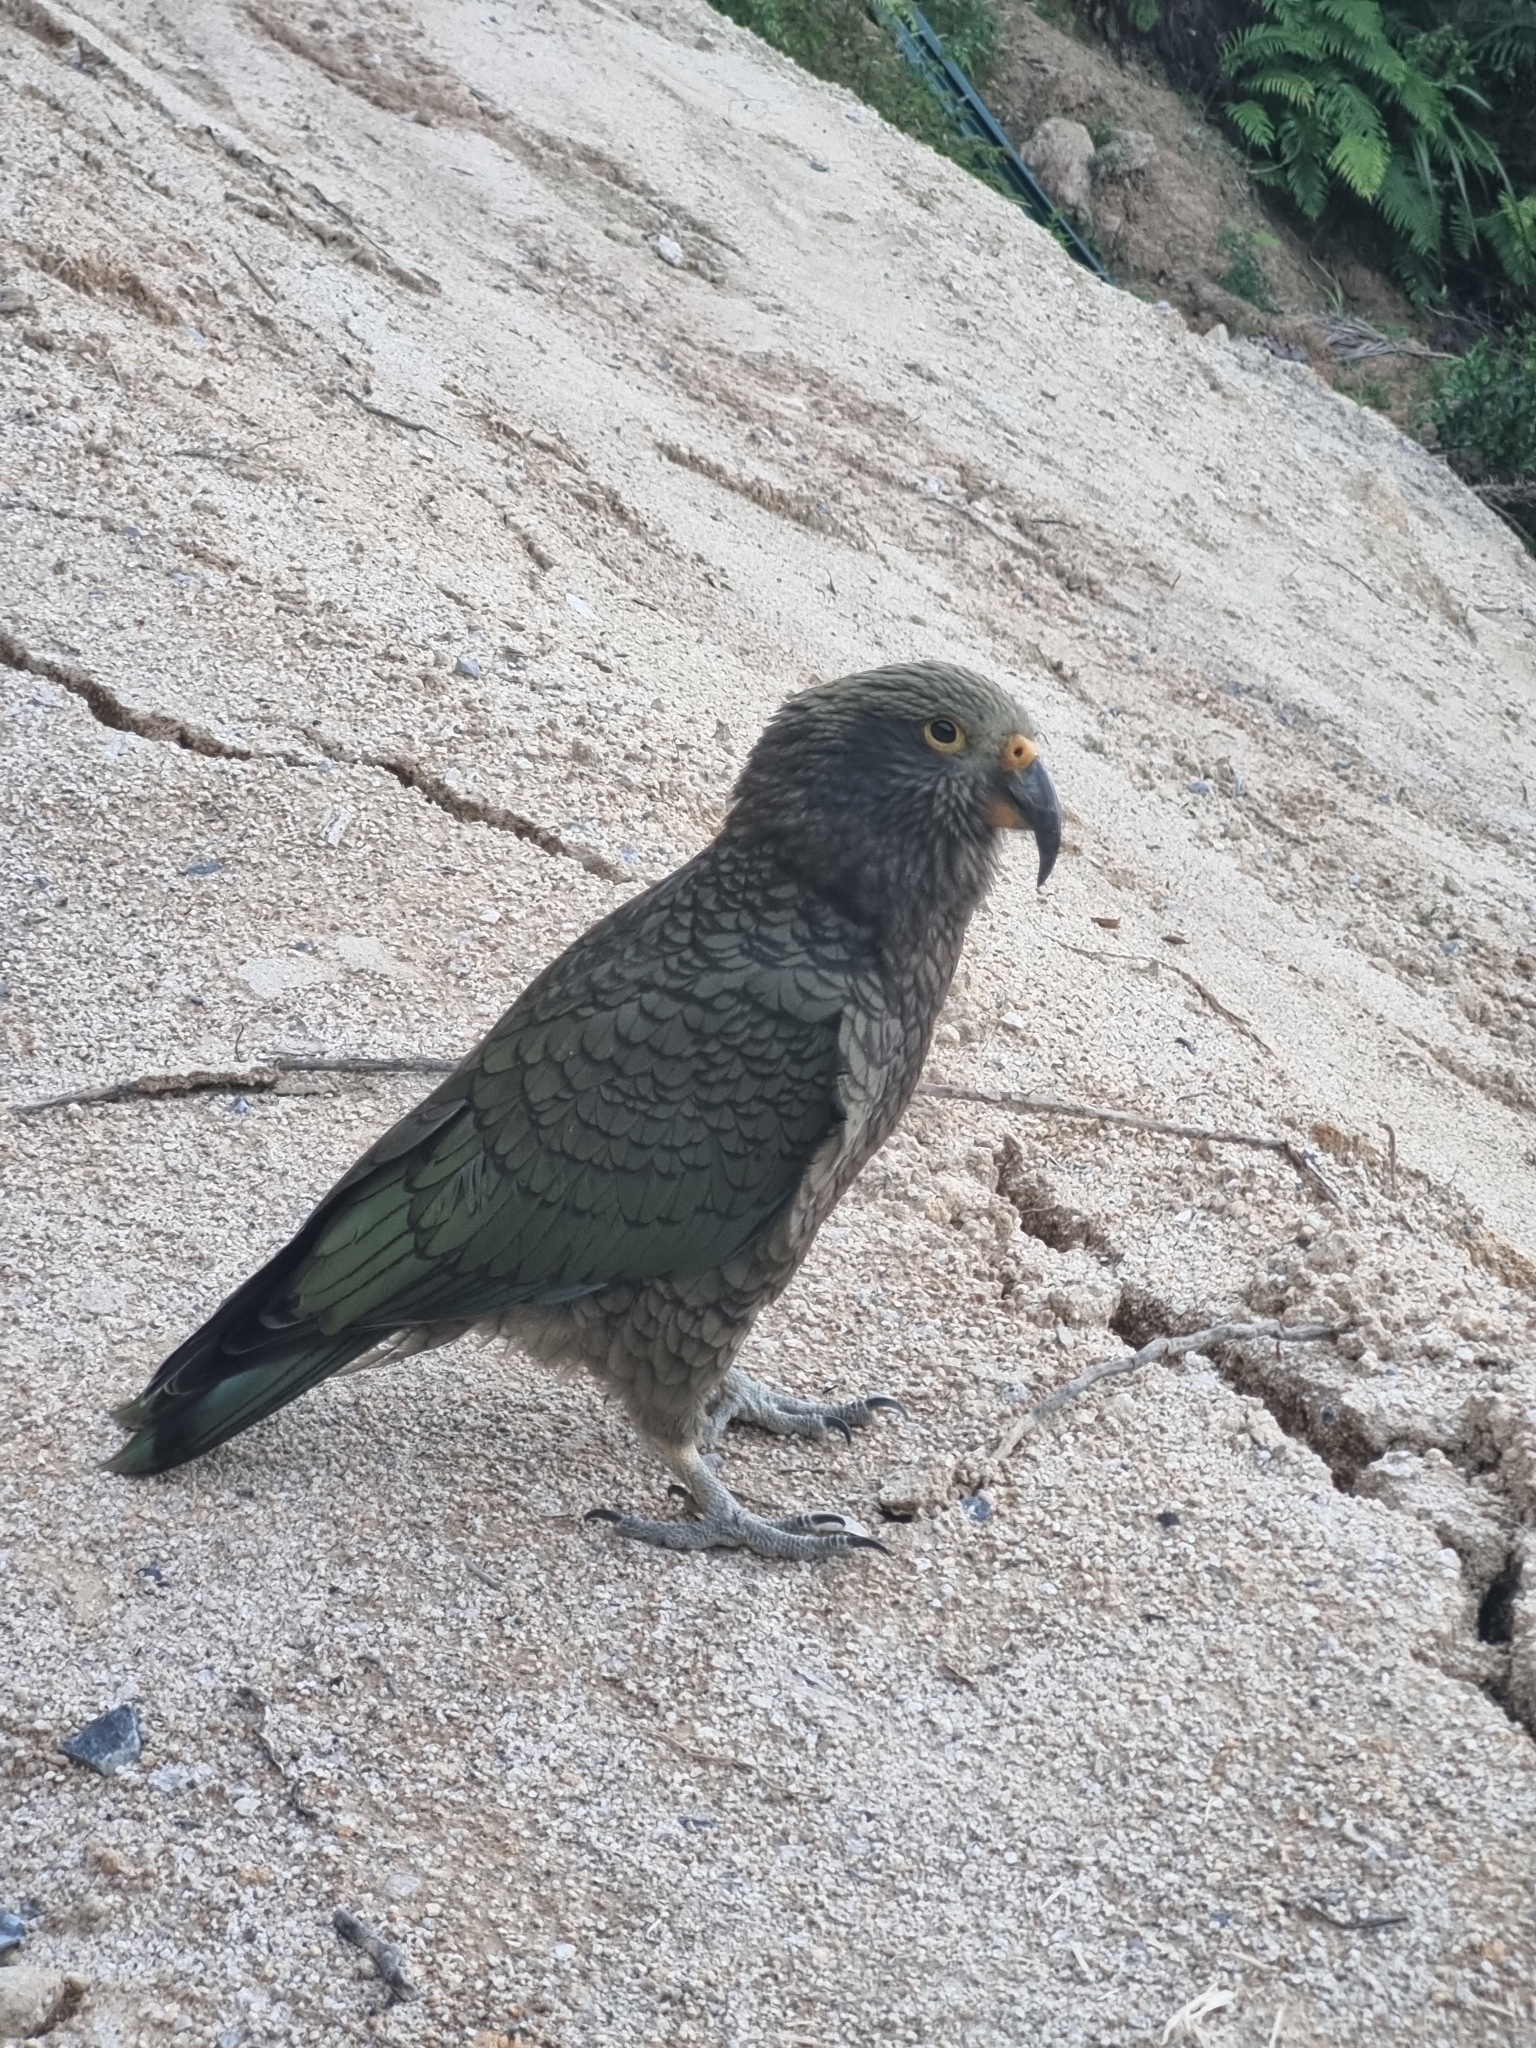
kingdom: Animalia
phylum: Chordata
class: Aves
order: Psittaciformes
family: Psittacidae
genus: Nestor
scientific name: Nestor notabilis
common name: Kea
